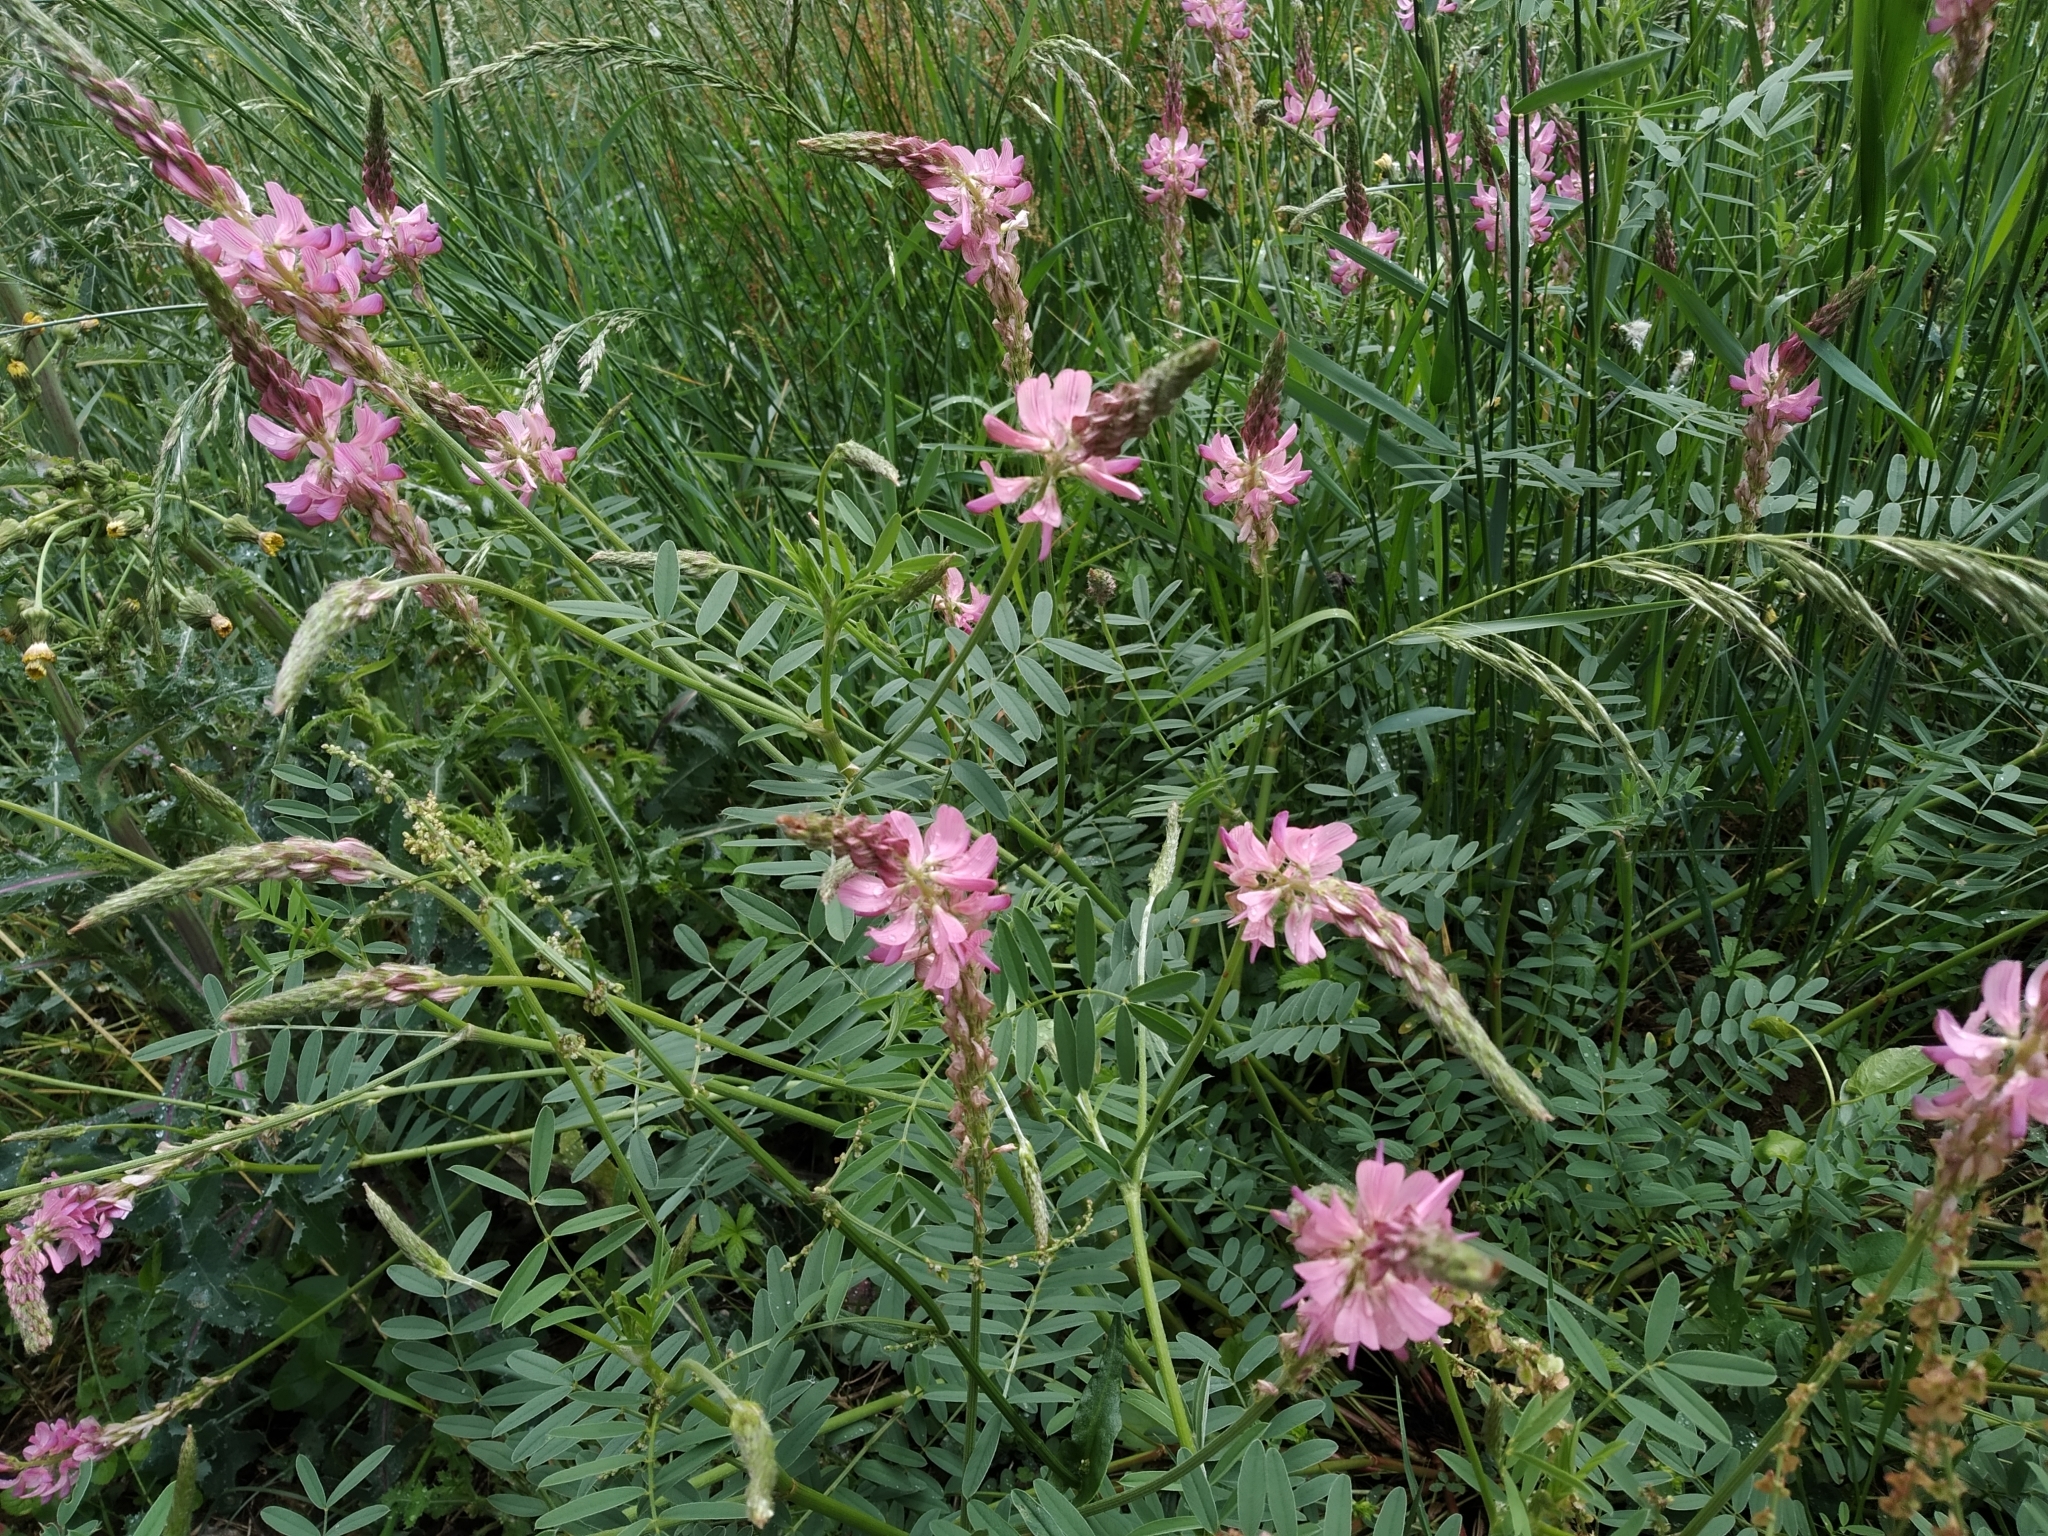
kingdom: Plantae
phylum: Tracheophyta
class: Magnoliopsida
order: Fabales
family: Fabaceae
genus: Onobrychis
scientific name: Onobrychis viciifolia
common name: Sainfoin
